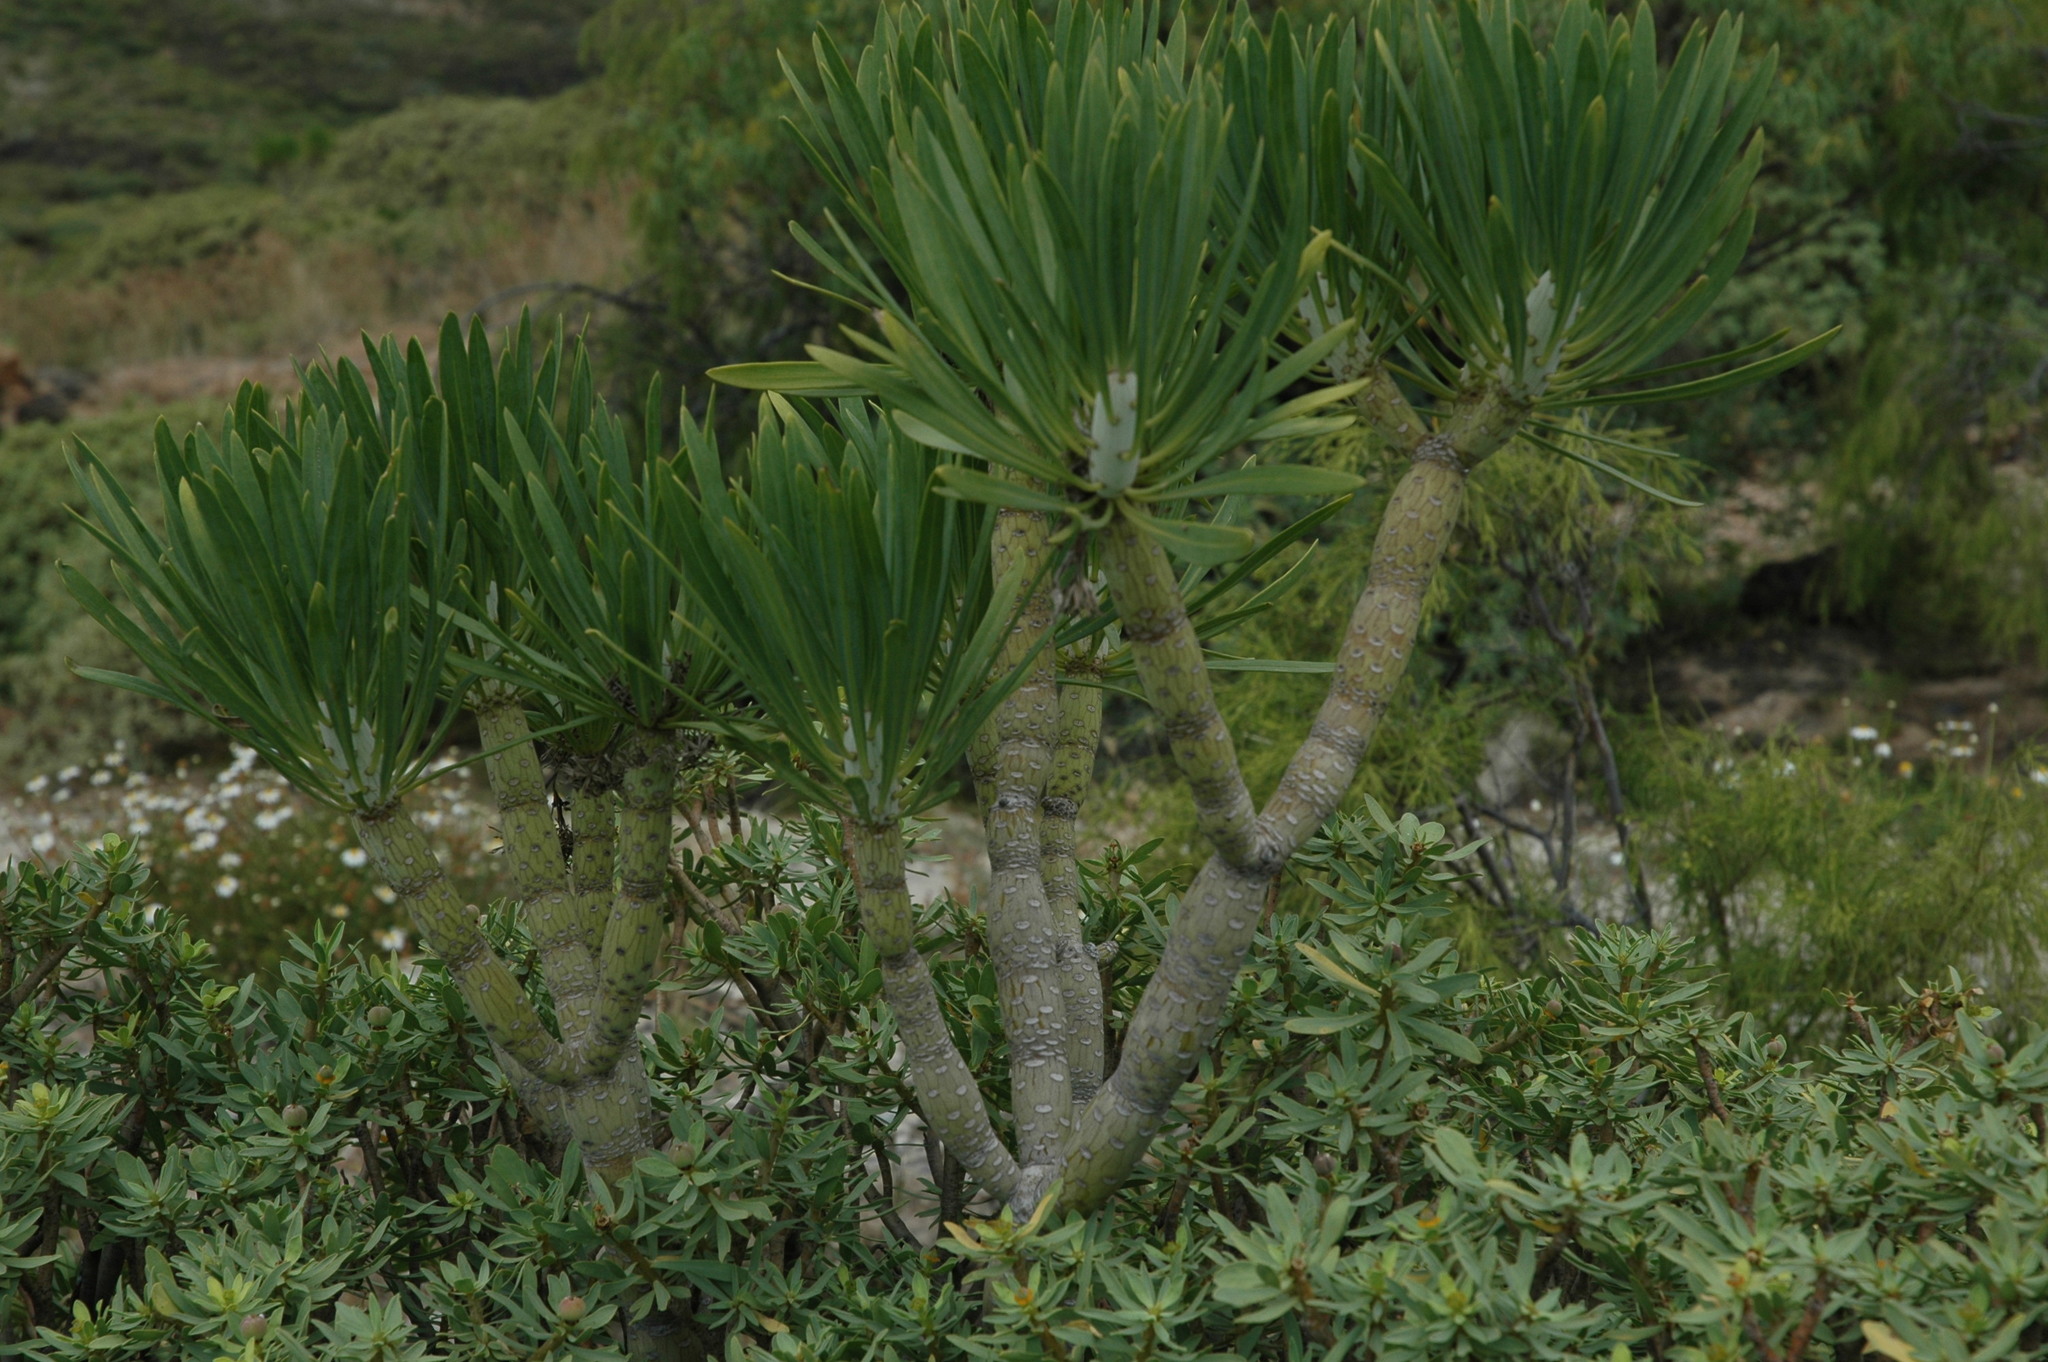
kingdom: Plantae
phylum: Tracheophyta
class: Magnoliopsida
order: Asterales
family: Asteraceae
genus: Kleinia
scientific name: Kleinia neriifolia
